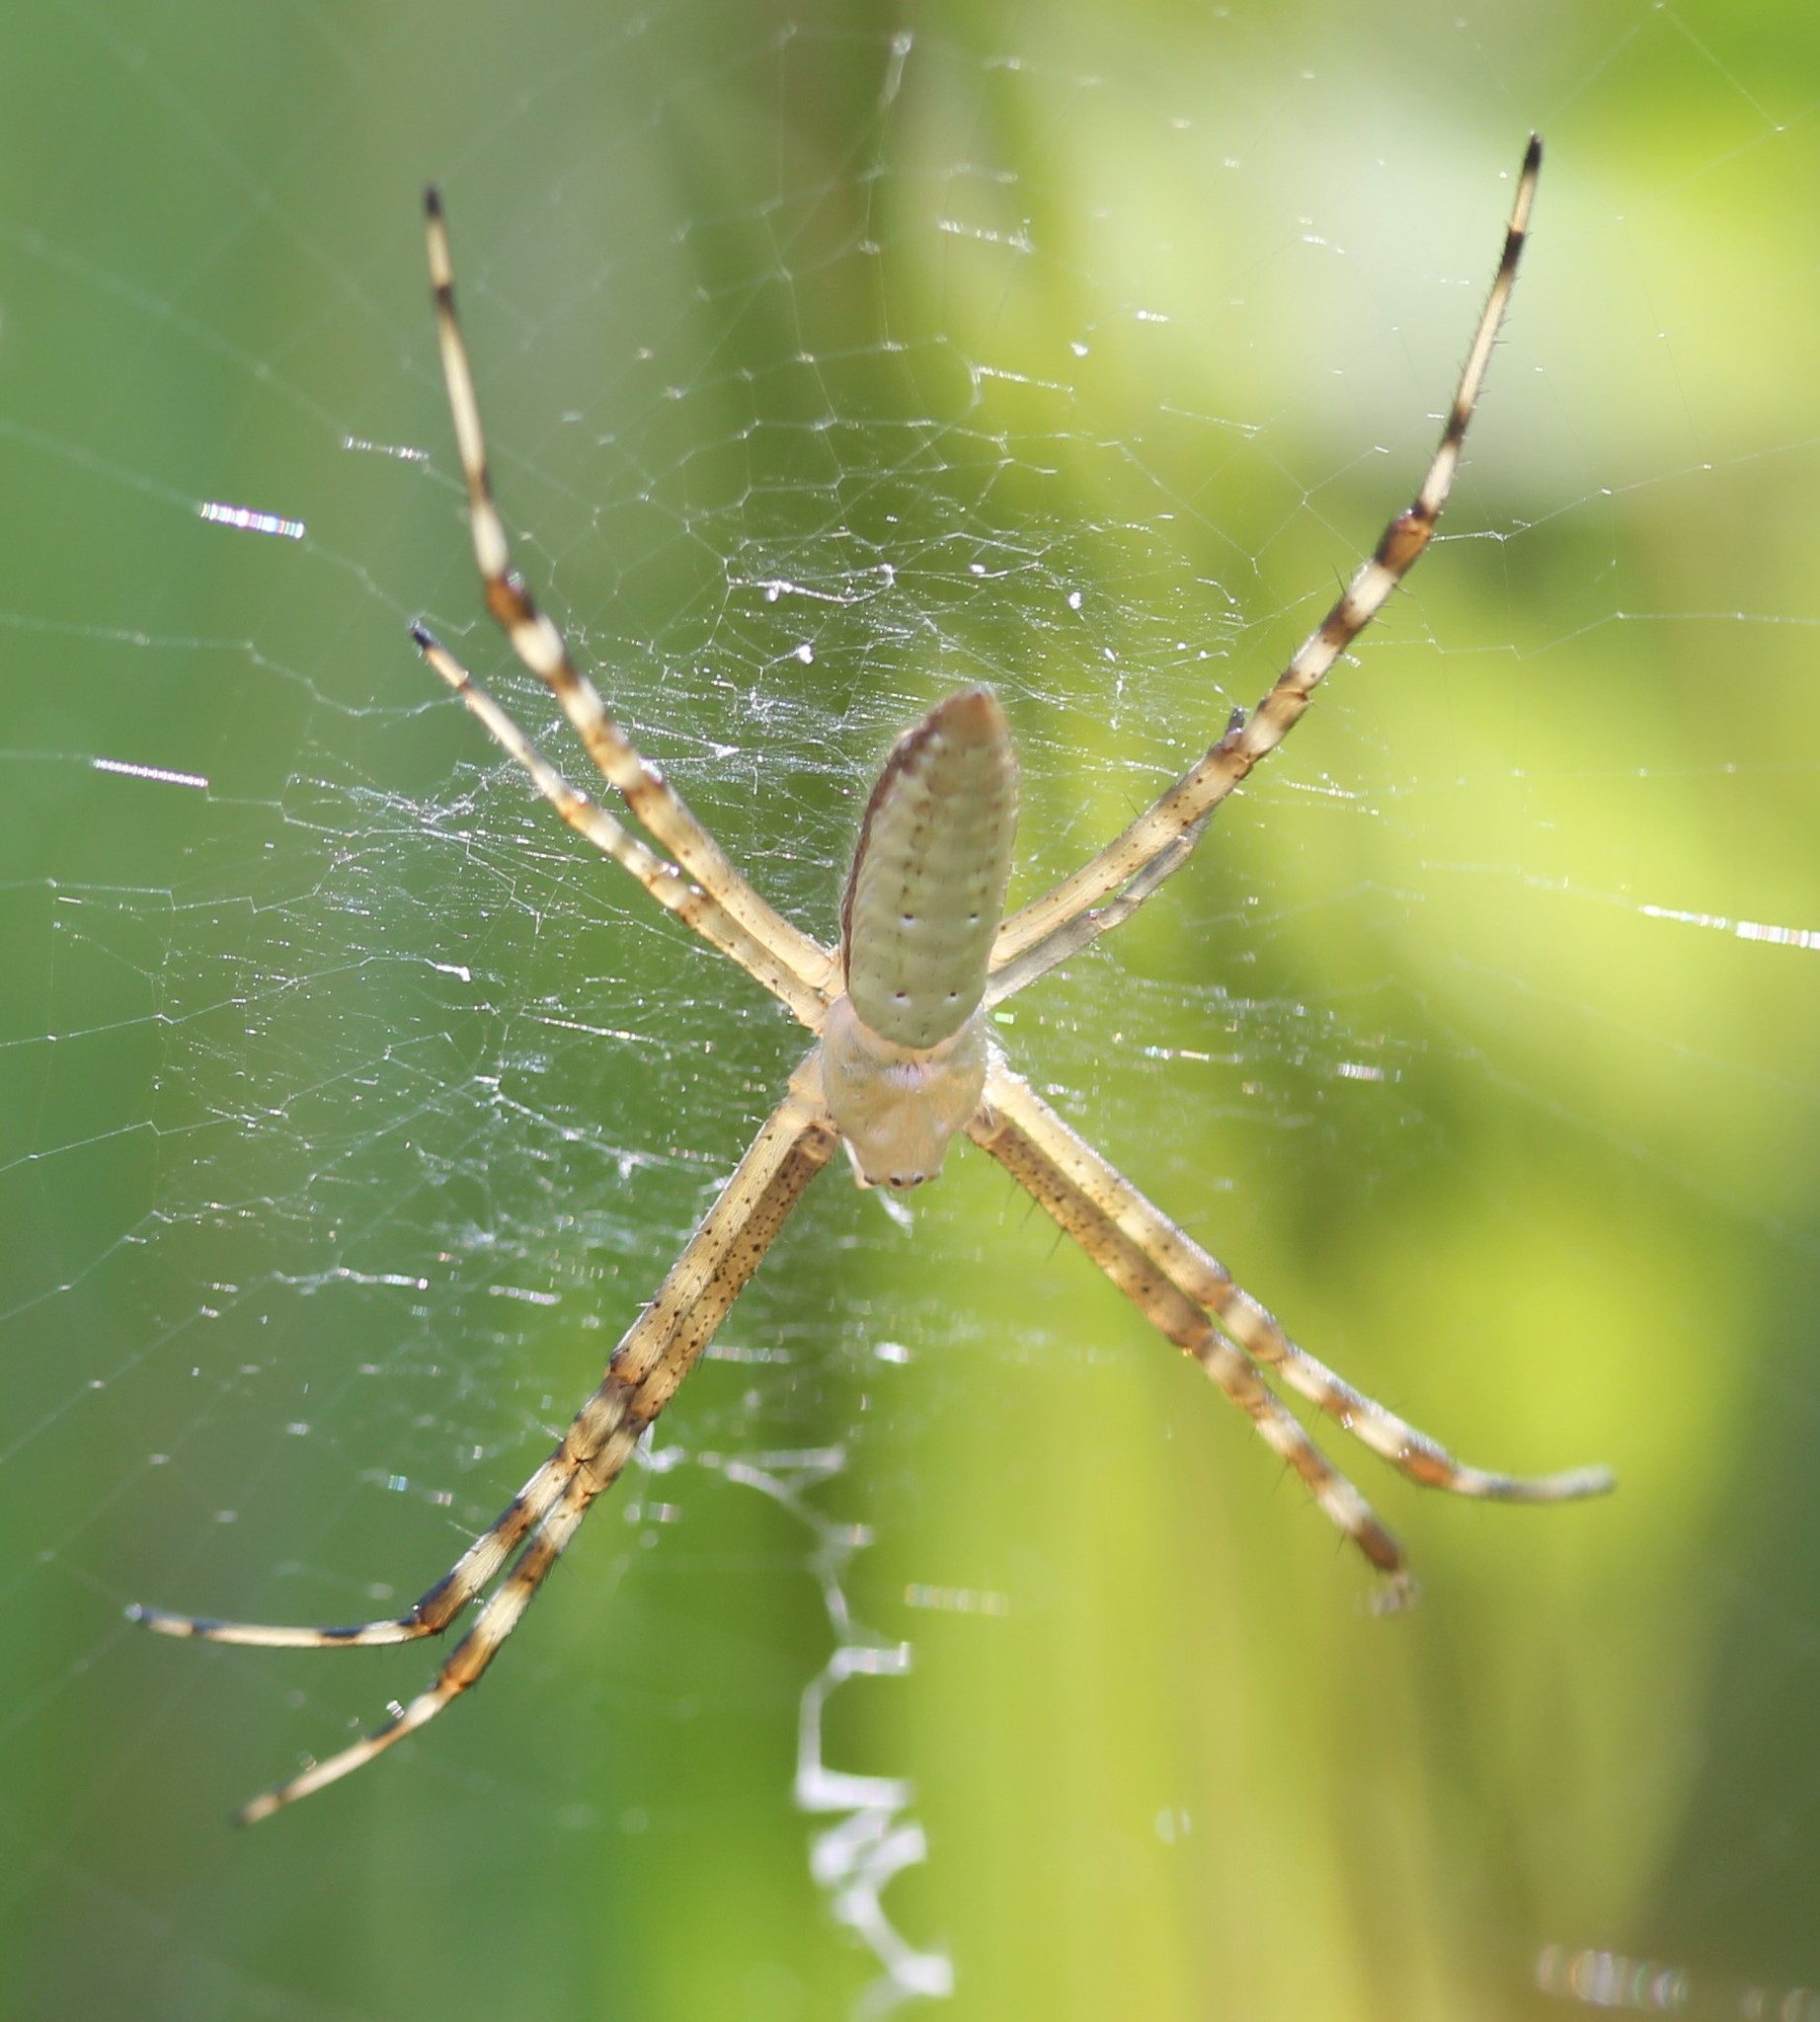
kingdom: Animalia
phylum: Arthropoda
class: Arachnida
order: Araneae
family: Araneidae
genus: Argiope
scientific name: Argiope trifasciata
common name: Banded garden spider
